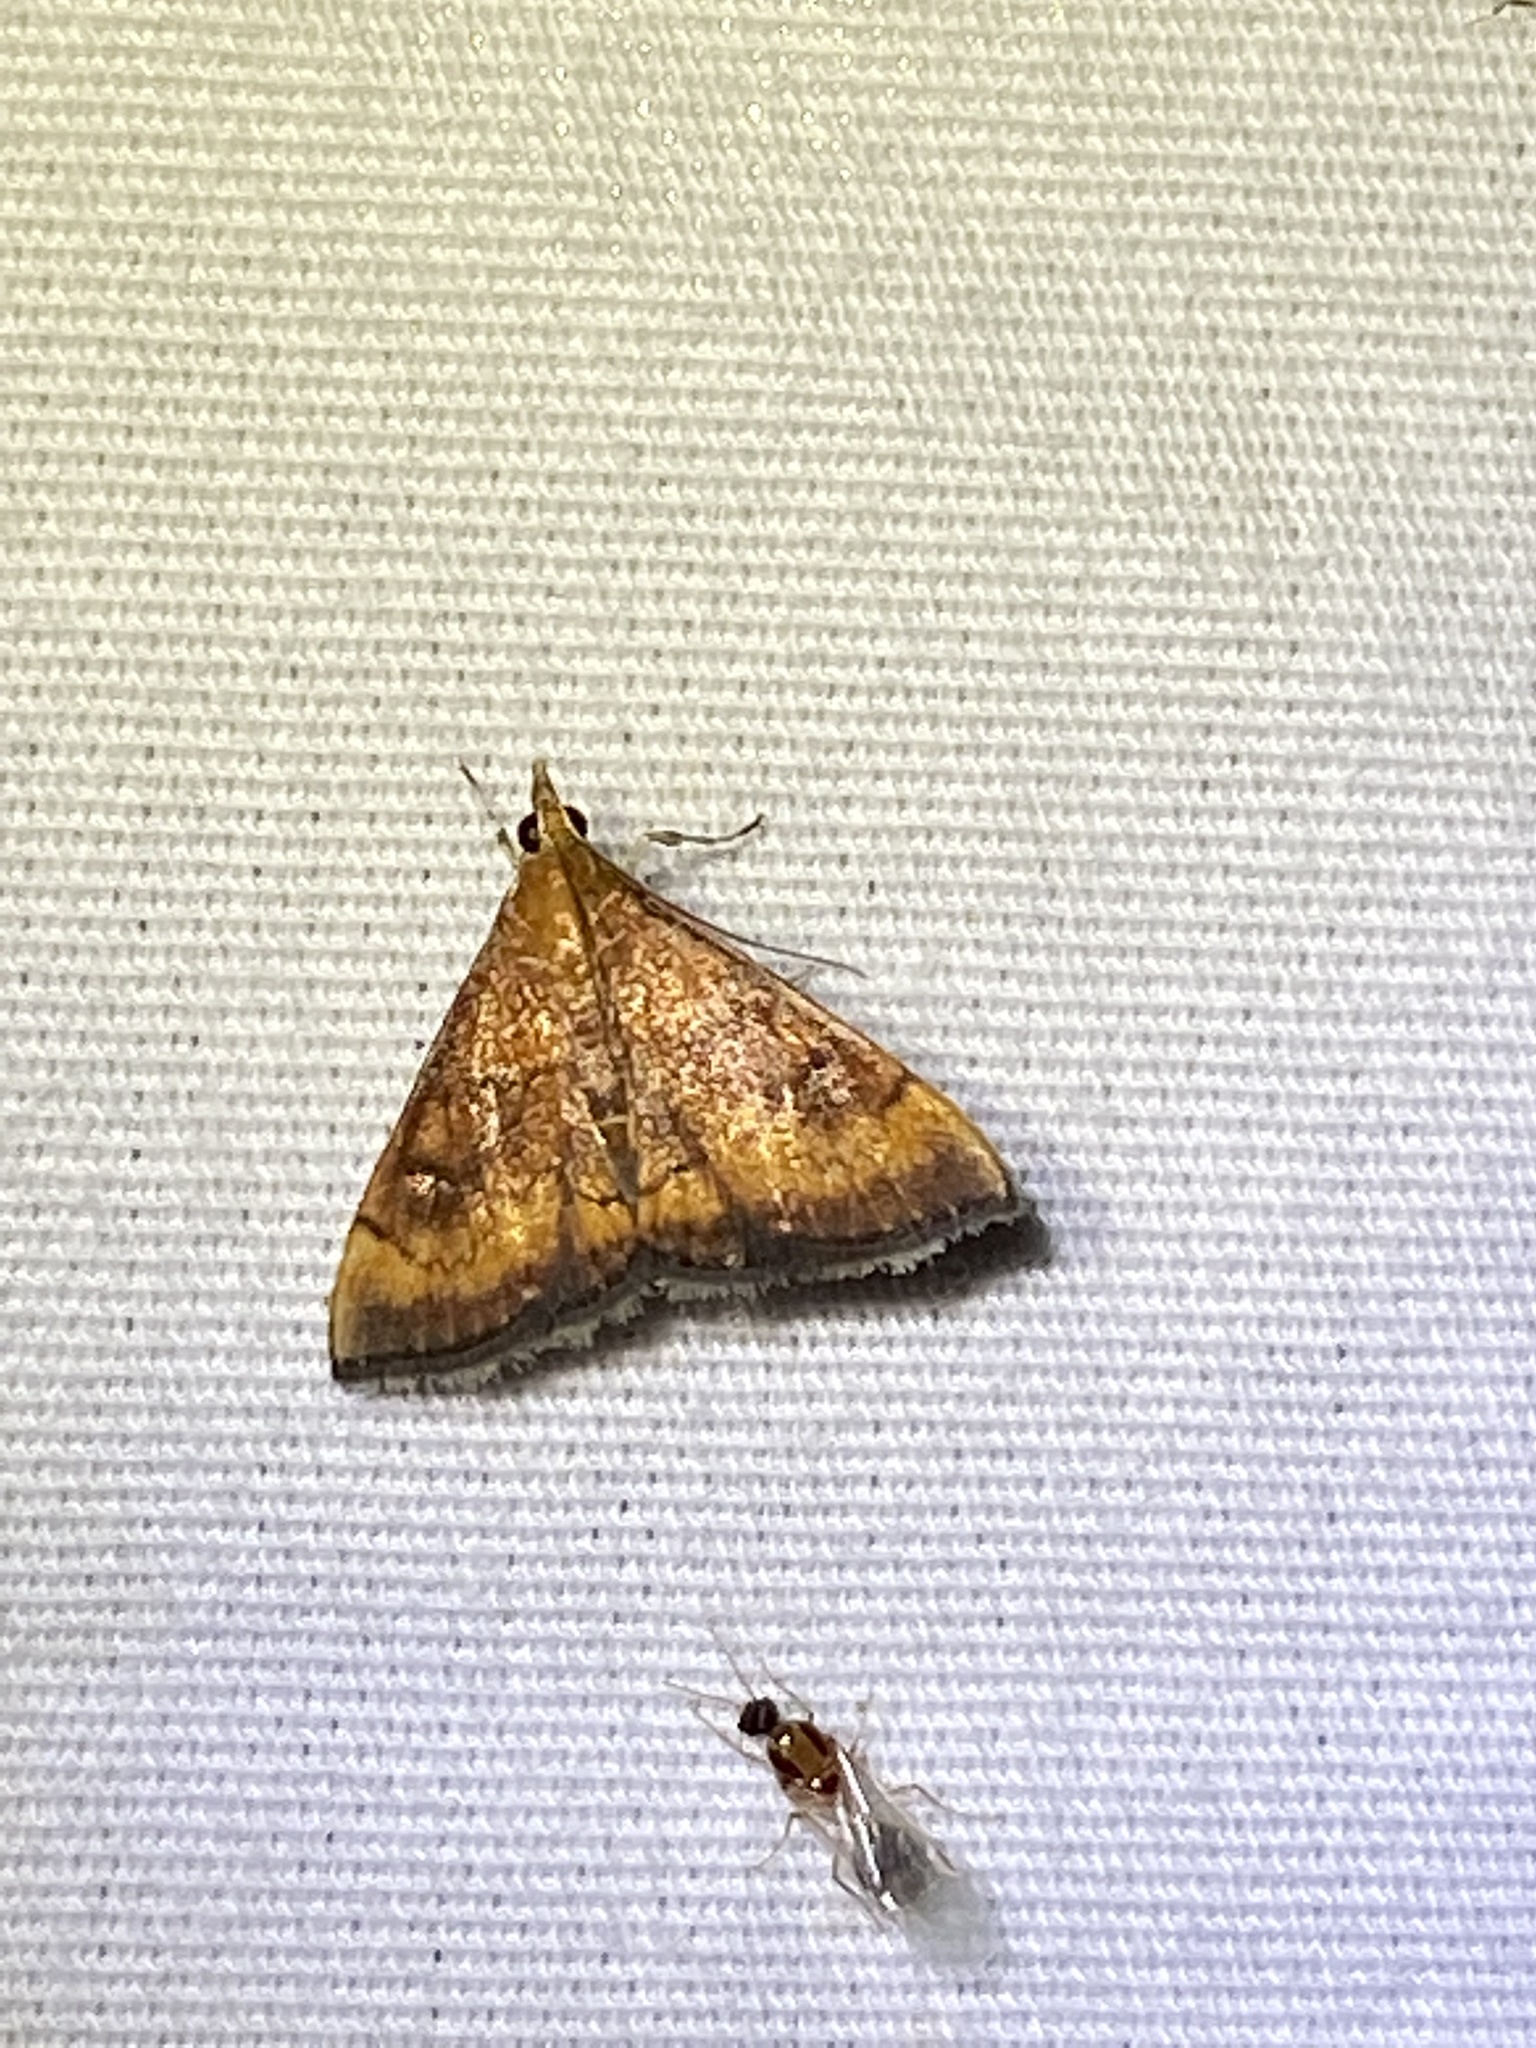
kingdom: Animalia
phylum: Arthropoda
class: Insecta
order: Lepidoptera
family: Crambidae
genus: Pyrausta
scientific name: Pyrausta rubricalis
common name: Variable reddish pyrausta
